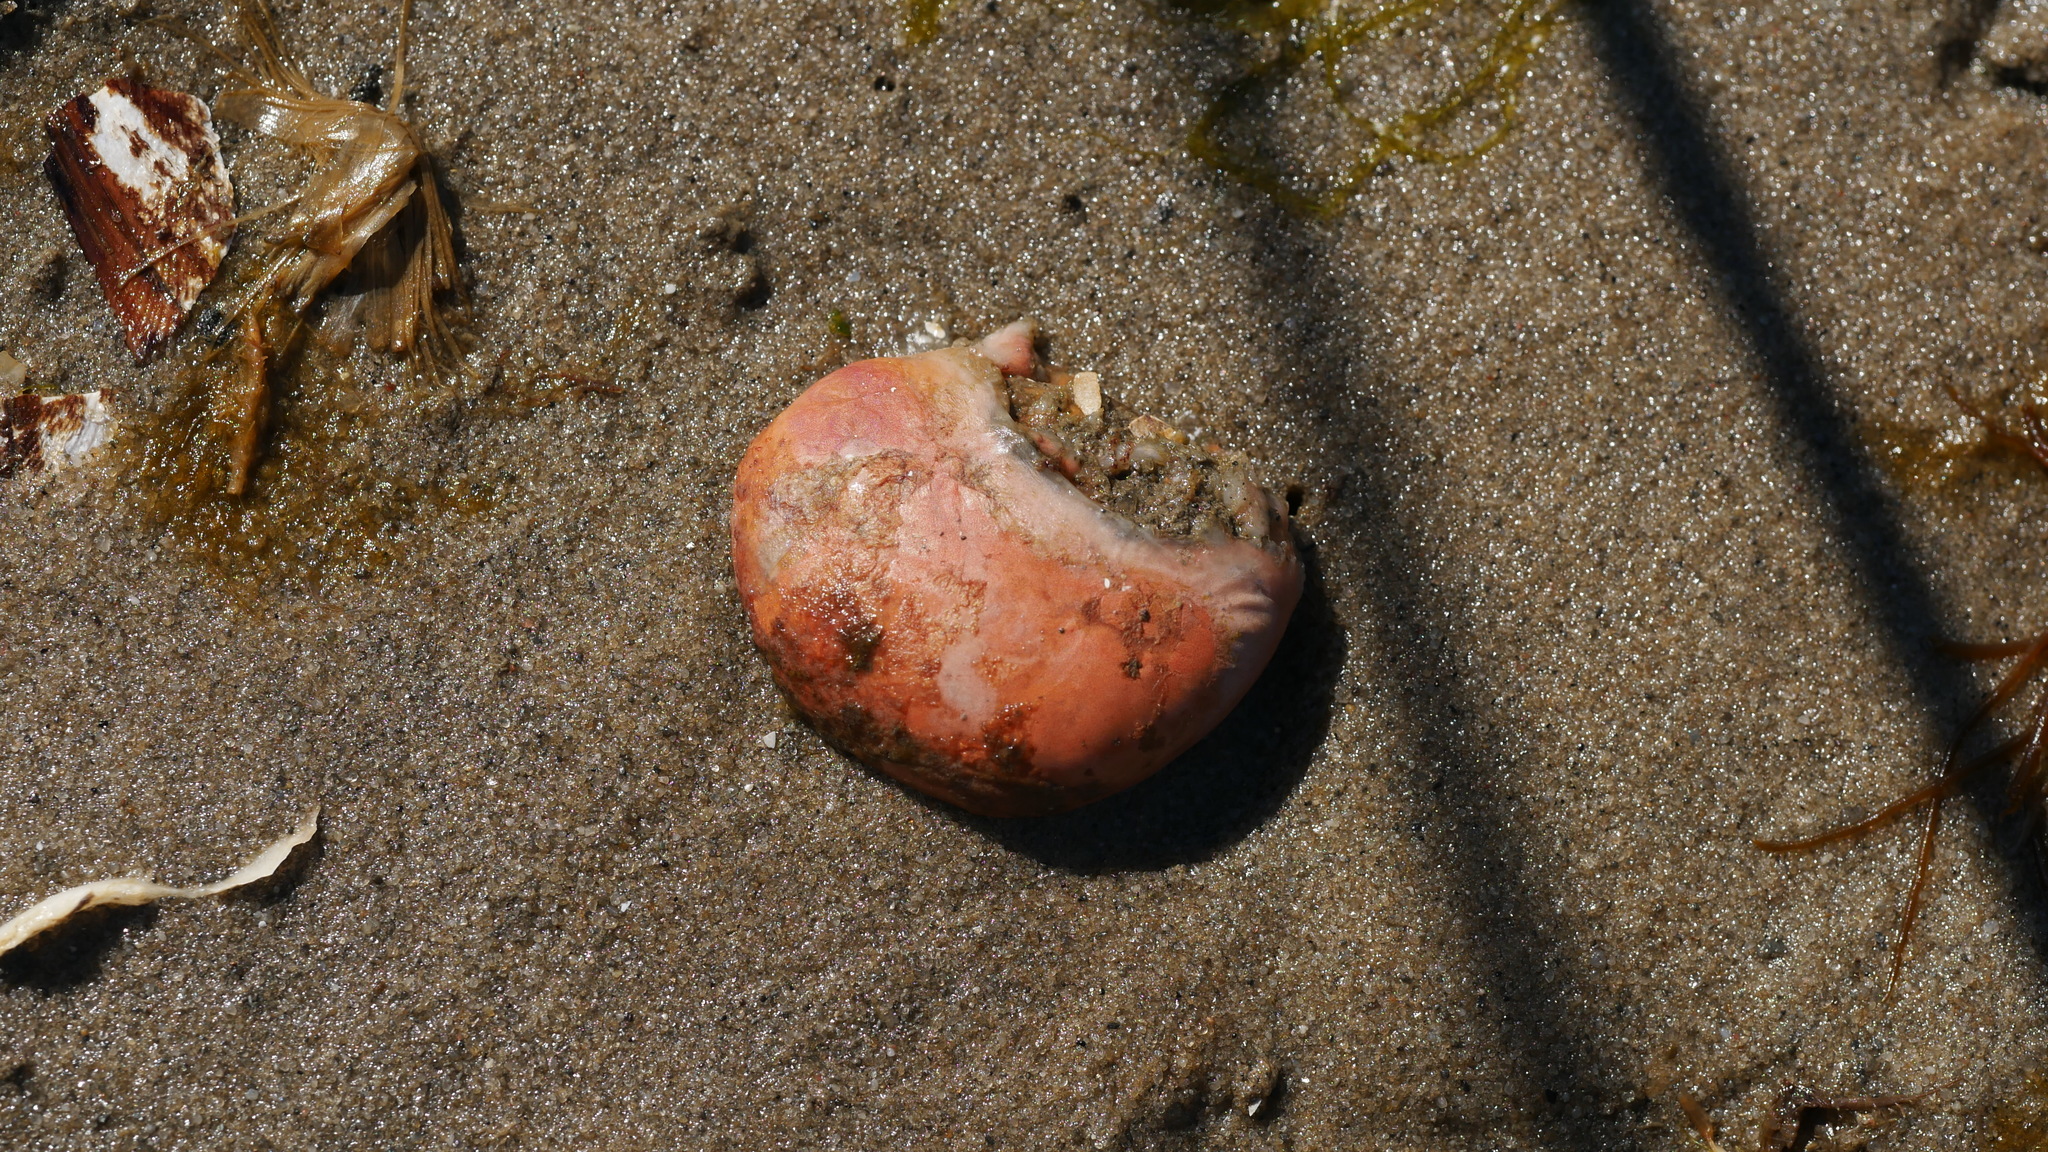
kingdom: Animalia
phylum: Chordata
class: Ascidiacea
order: Aplousobranchia
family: Polyclinidae
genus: Aplidium
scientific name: Aplidium stellatum
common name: Atlantic sea pork
